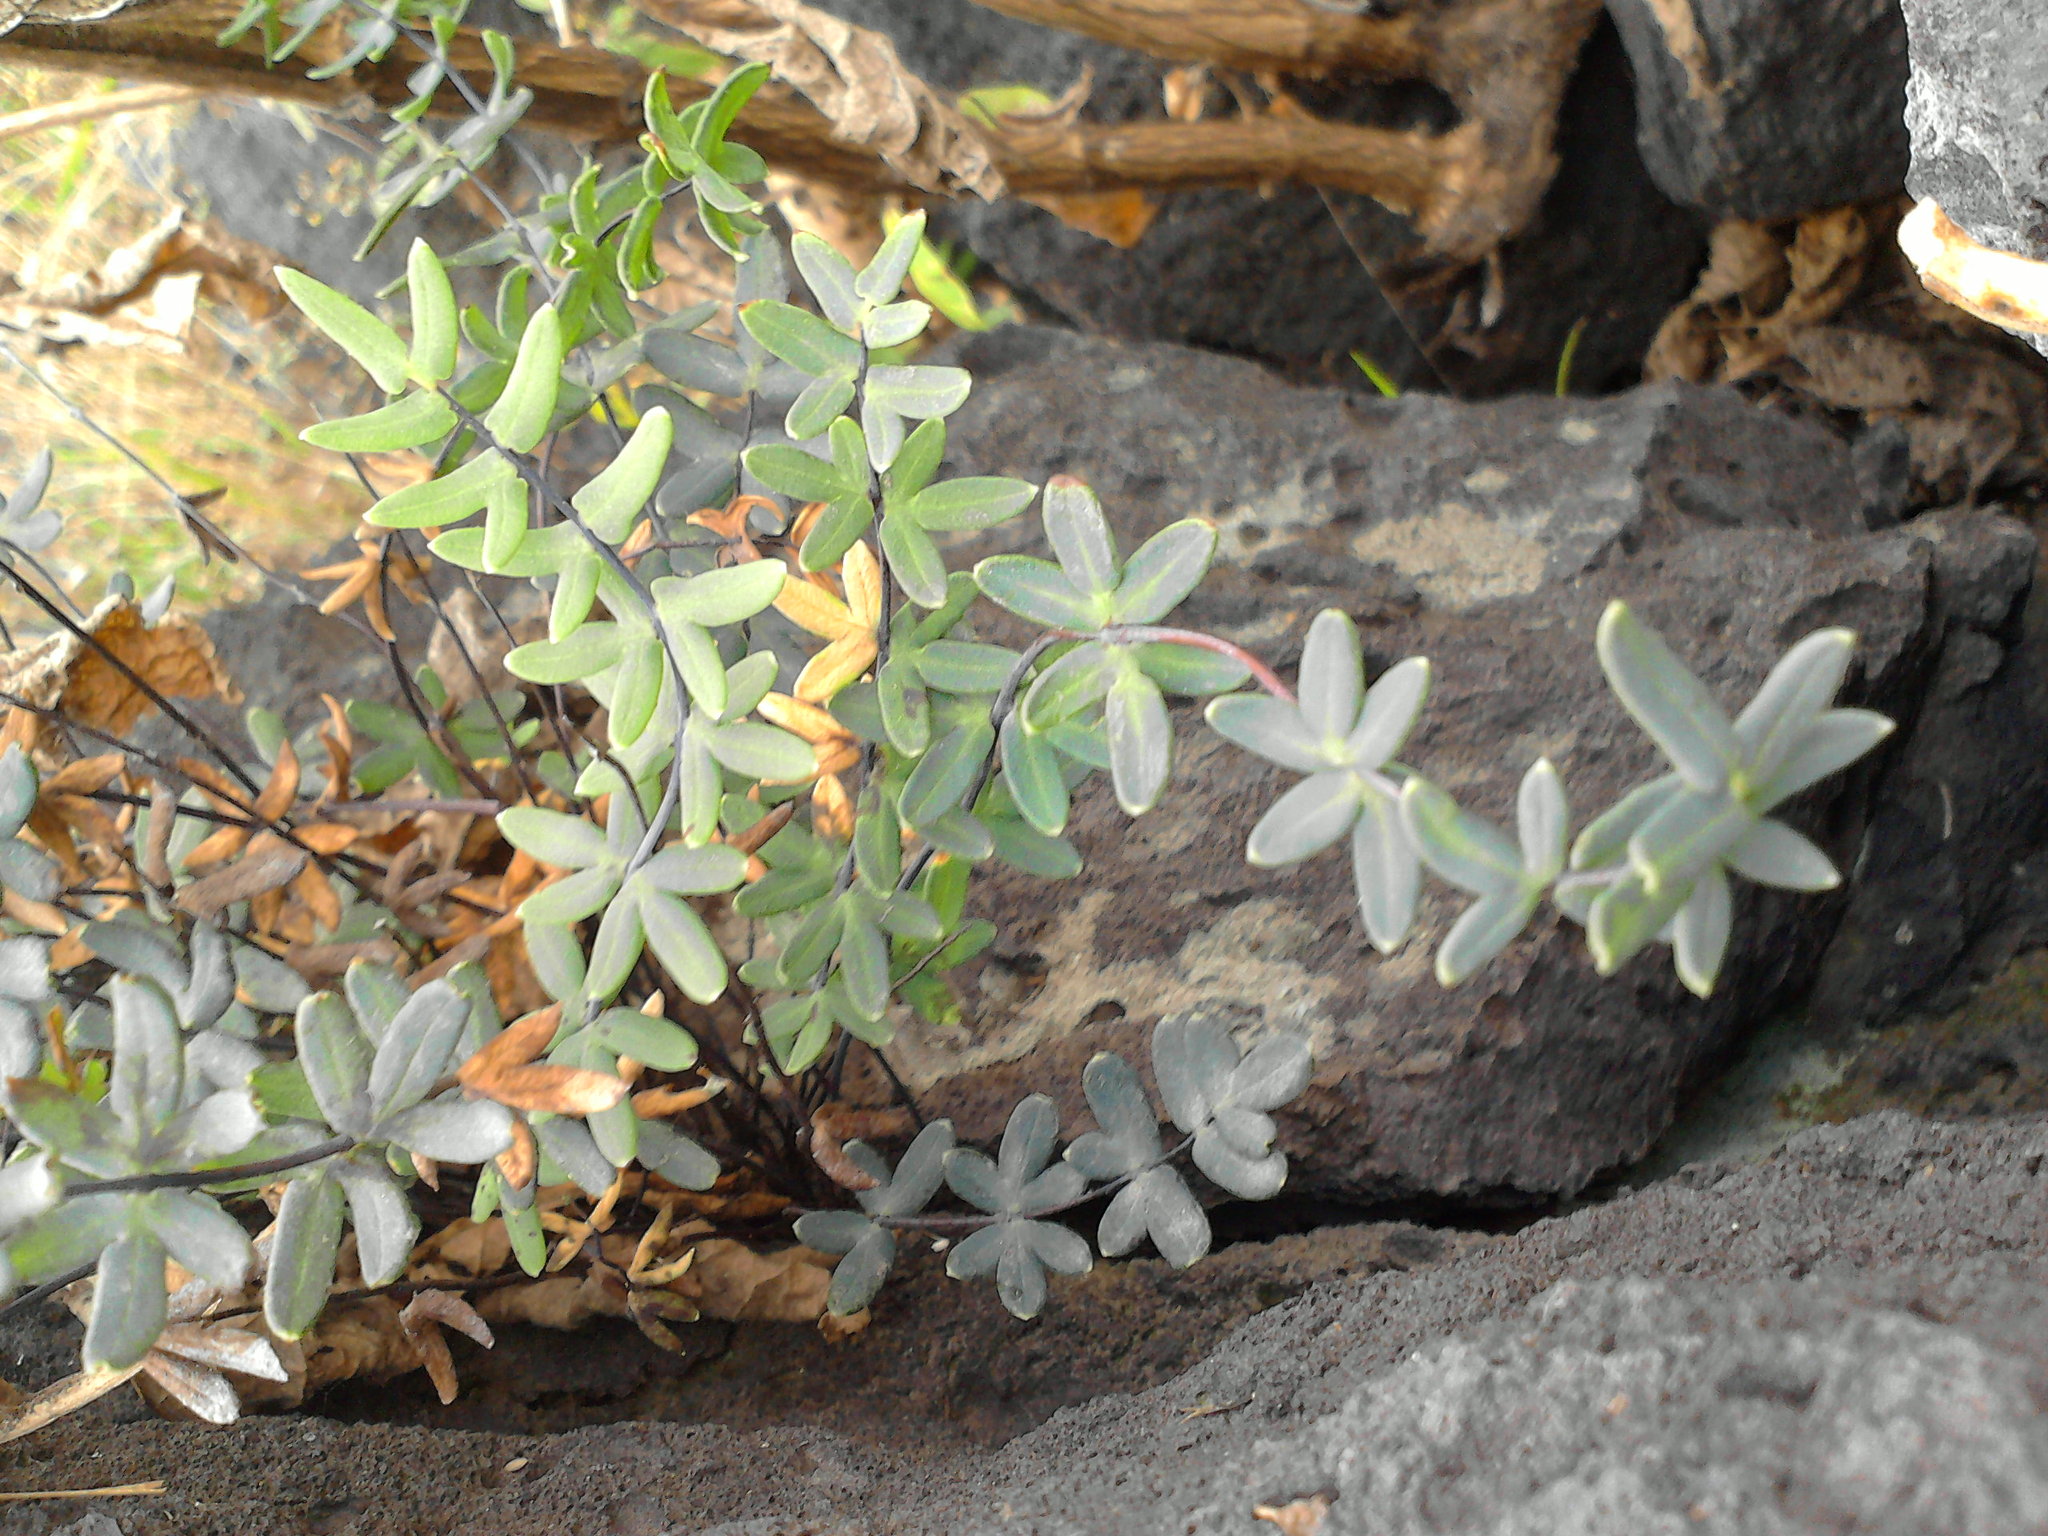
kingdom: Plantae
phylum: Tracheophyta
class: Polypodiopsida
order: Polypodiales
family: Pteridaceae
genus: Pellaea
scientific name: Pellaea ternifolia
